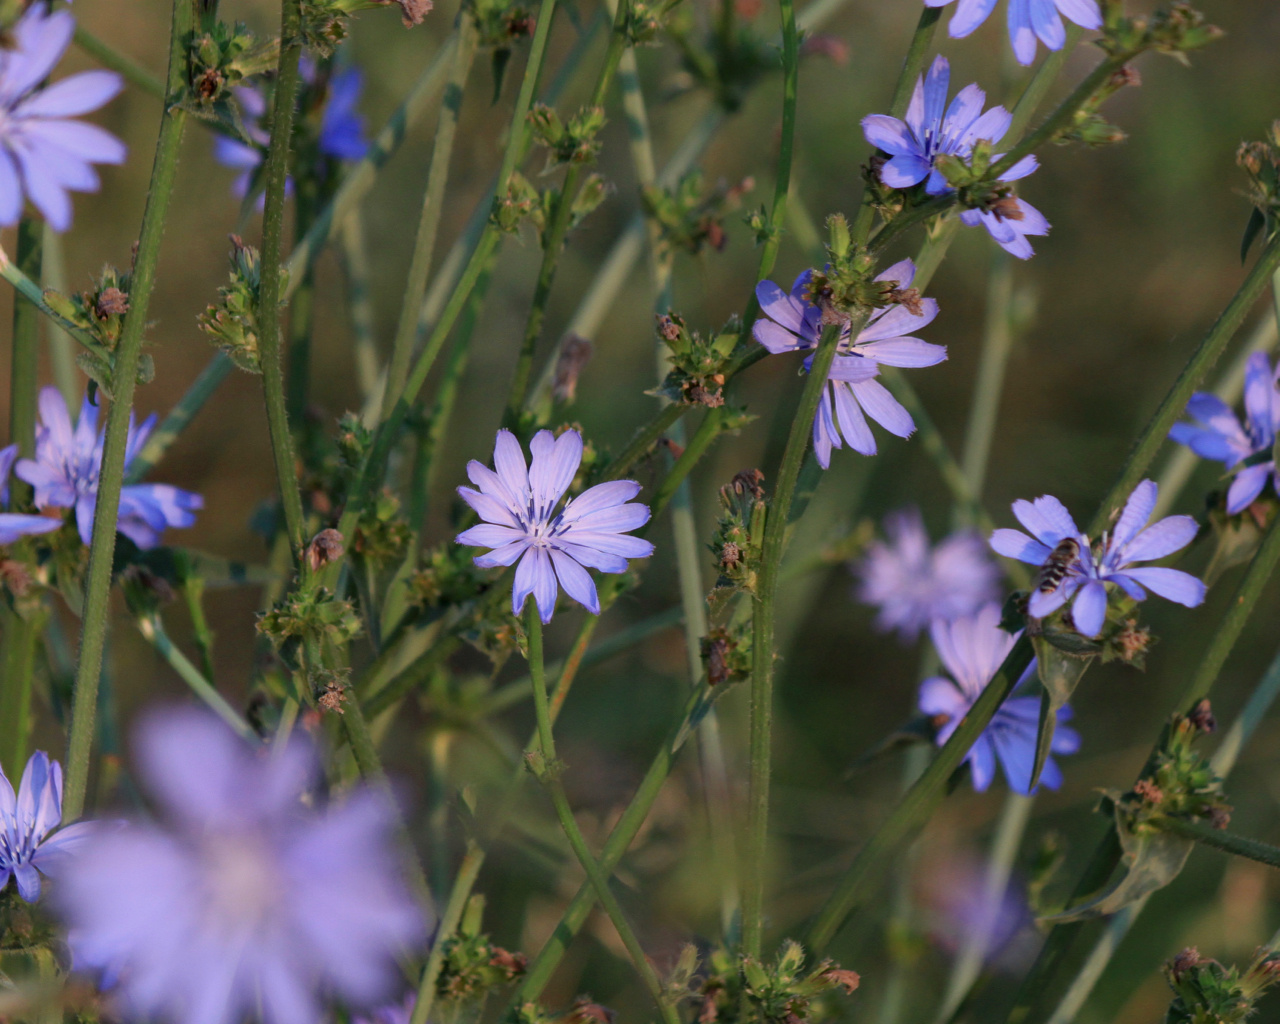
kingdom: Plantae
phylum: Tracheophyta
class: Magnoliopsida
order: Asterales
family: Asteraceae
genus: Cichorium
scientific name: Cichorium intybus
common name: Chicory
